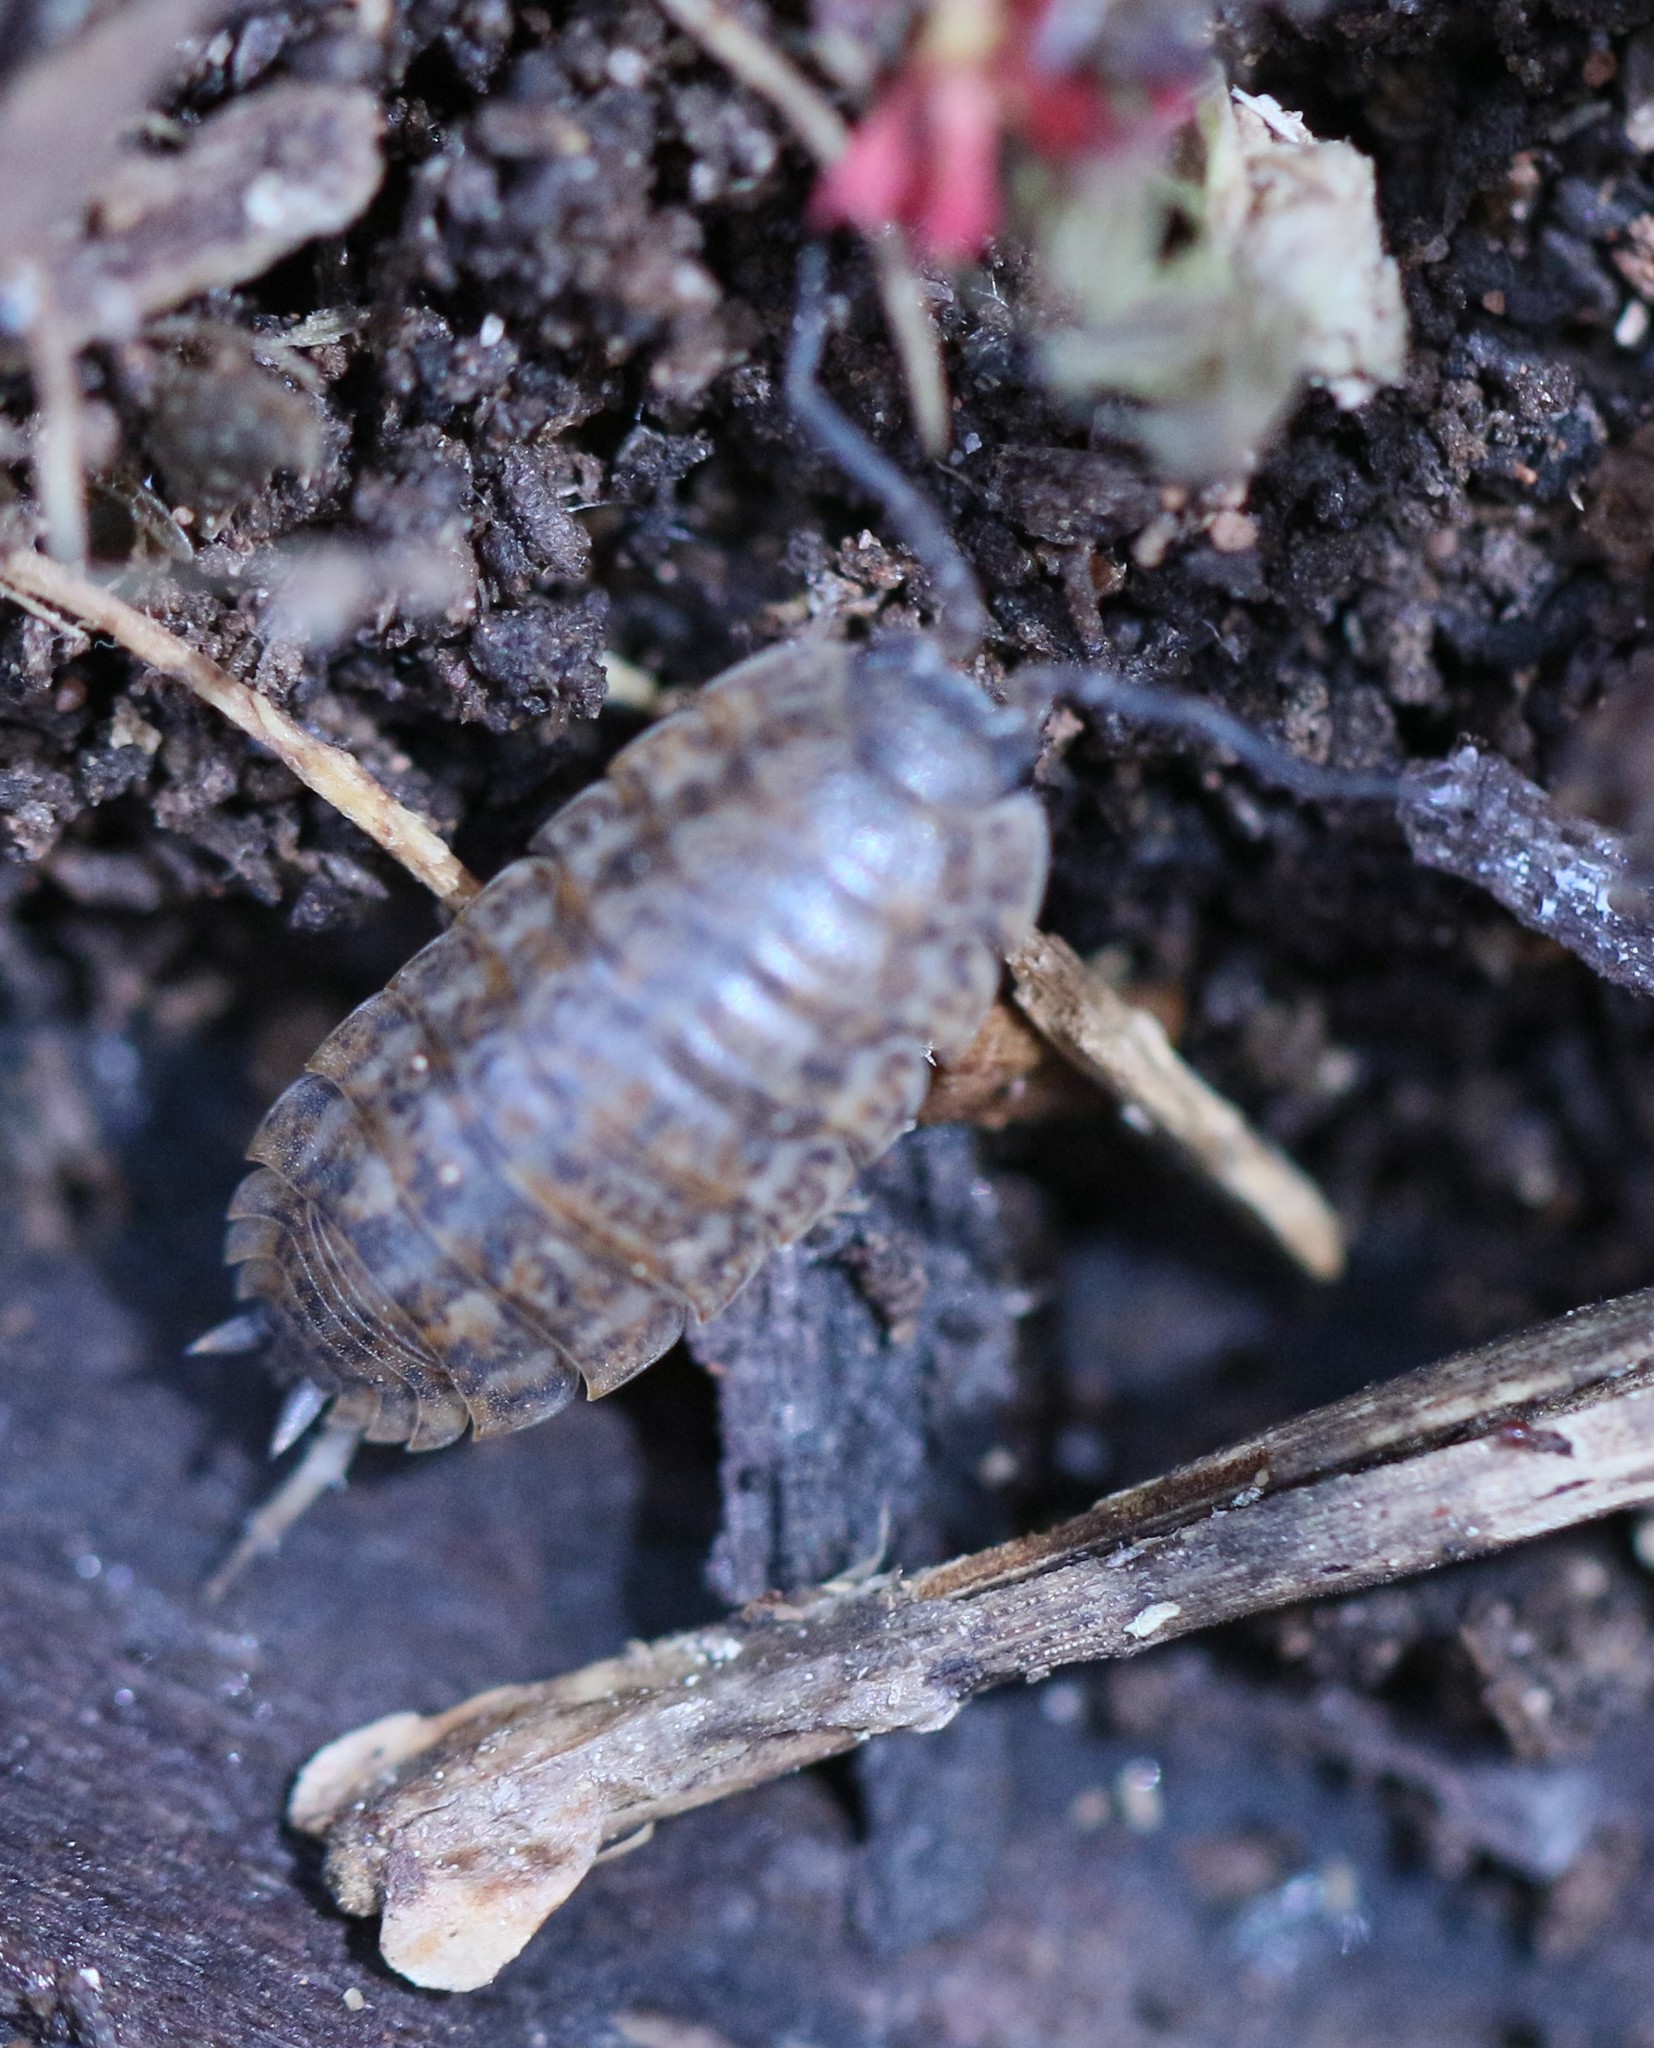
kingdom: Animalia
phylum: Arthropoda
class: Malacostraca
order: Isopoda
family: Trachelipodidae
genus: Trachelipus
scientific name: Trachelipus rathkii
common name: Isopod
